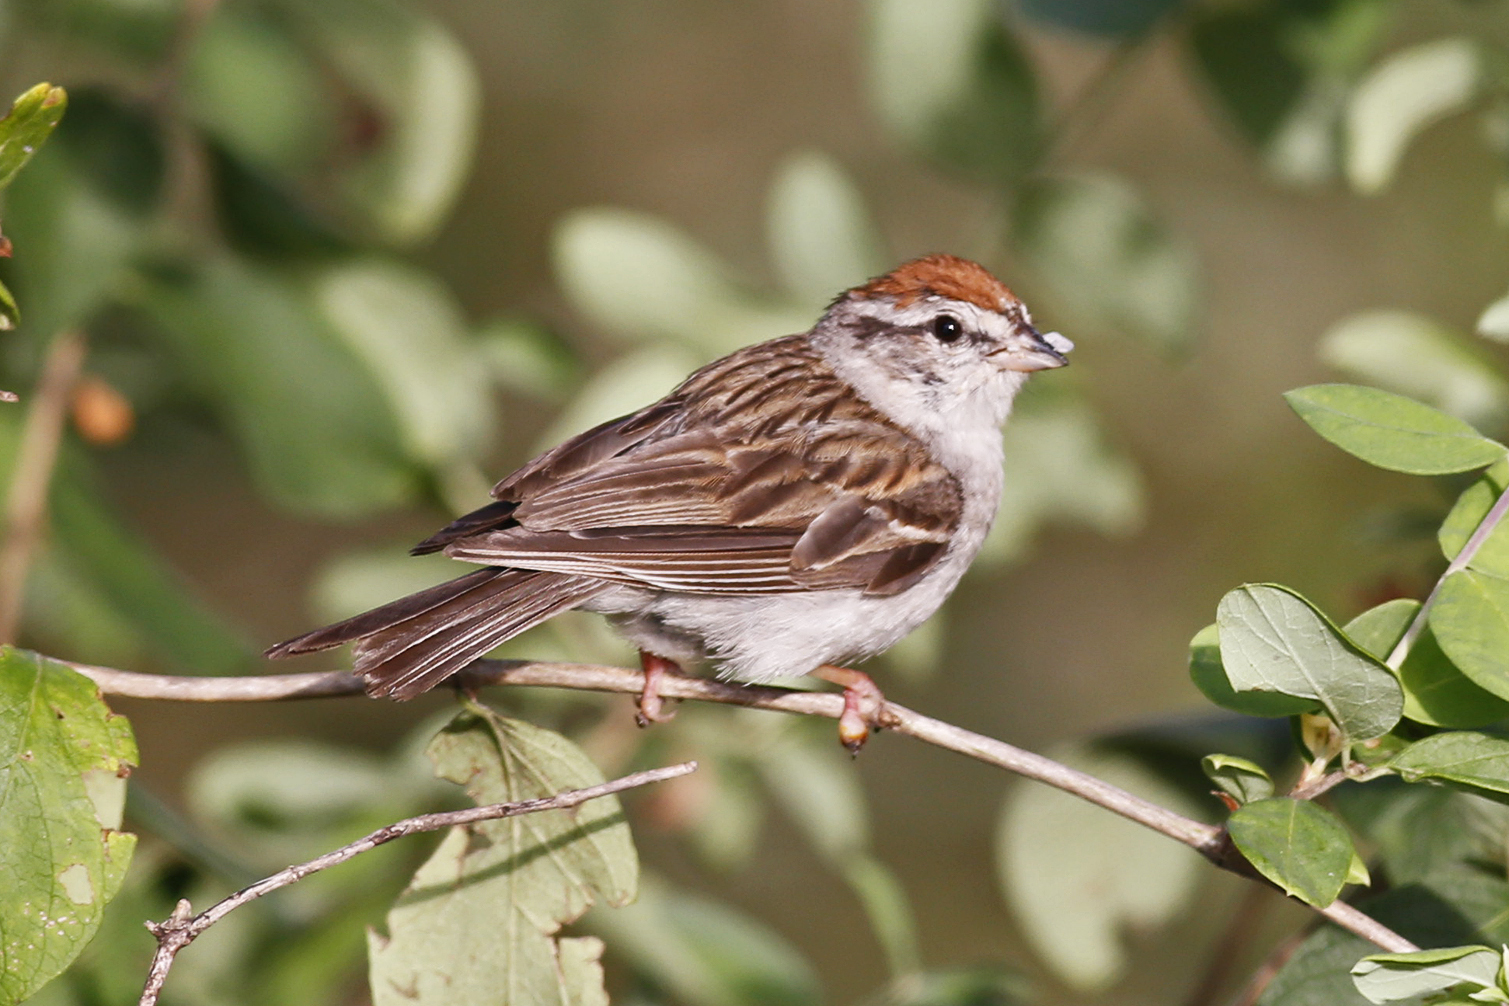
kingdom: Animalia
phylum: Chordata
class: Aves
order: Passeriformes
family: Passerellidae
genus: Spizella
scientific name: Spizella passerina
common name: Chipping sparrow
